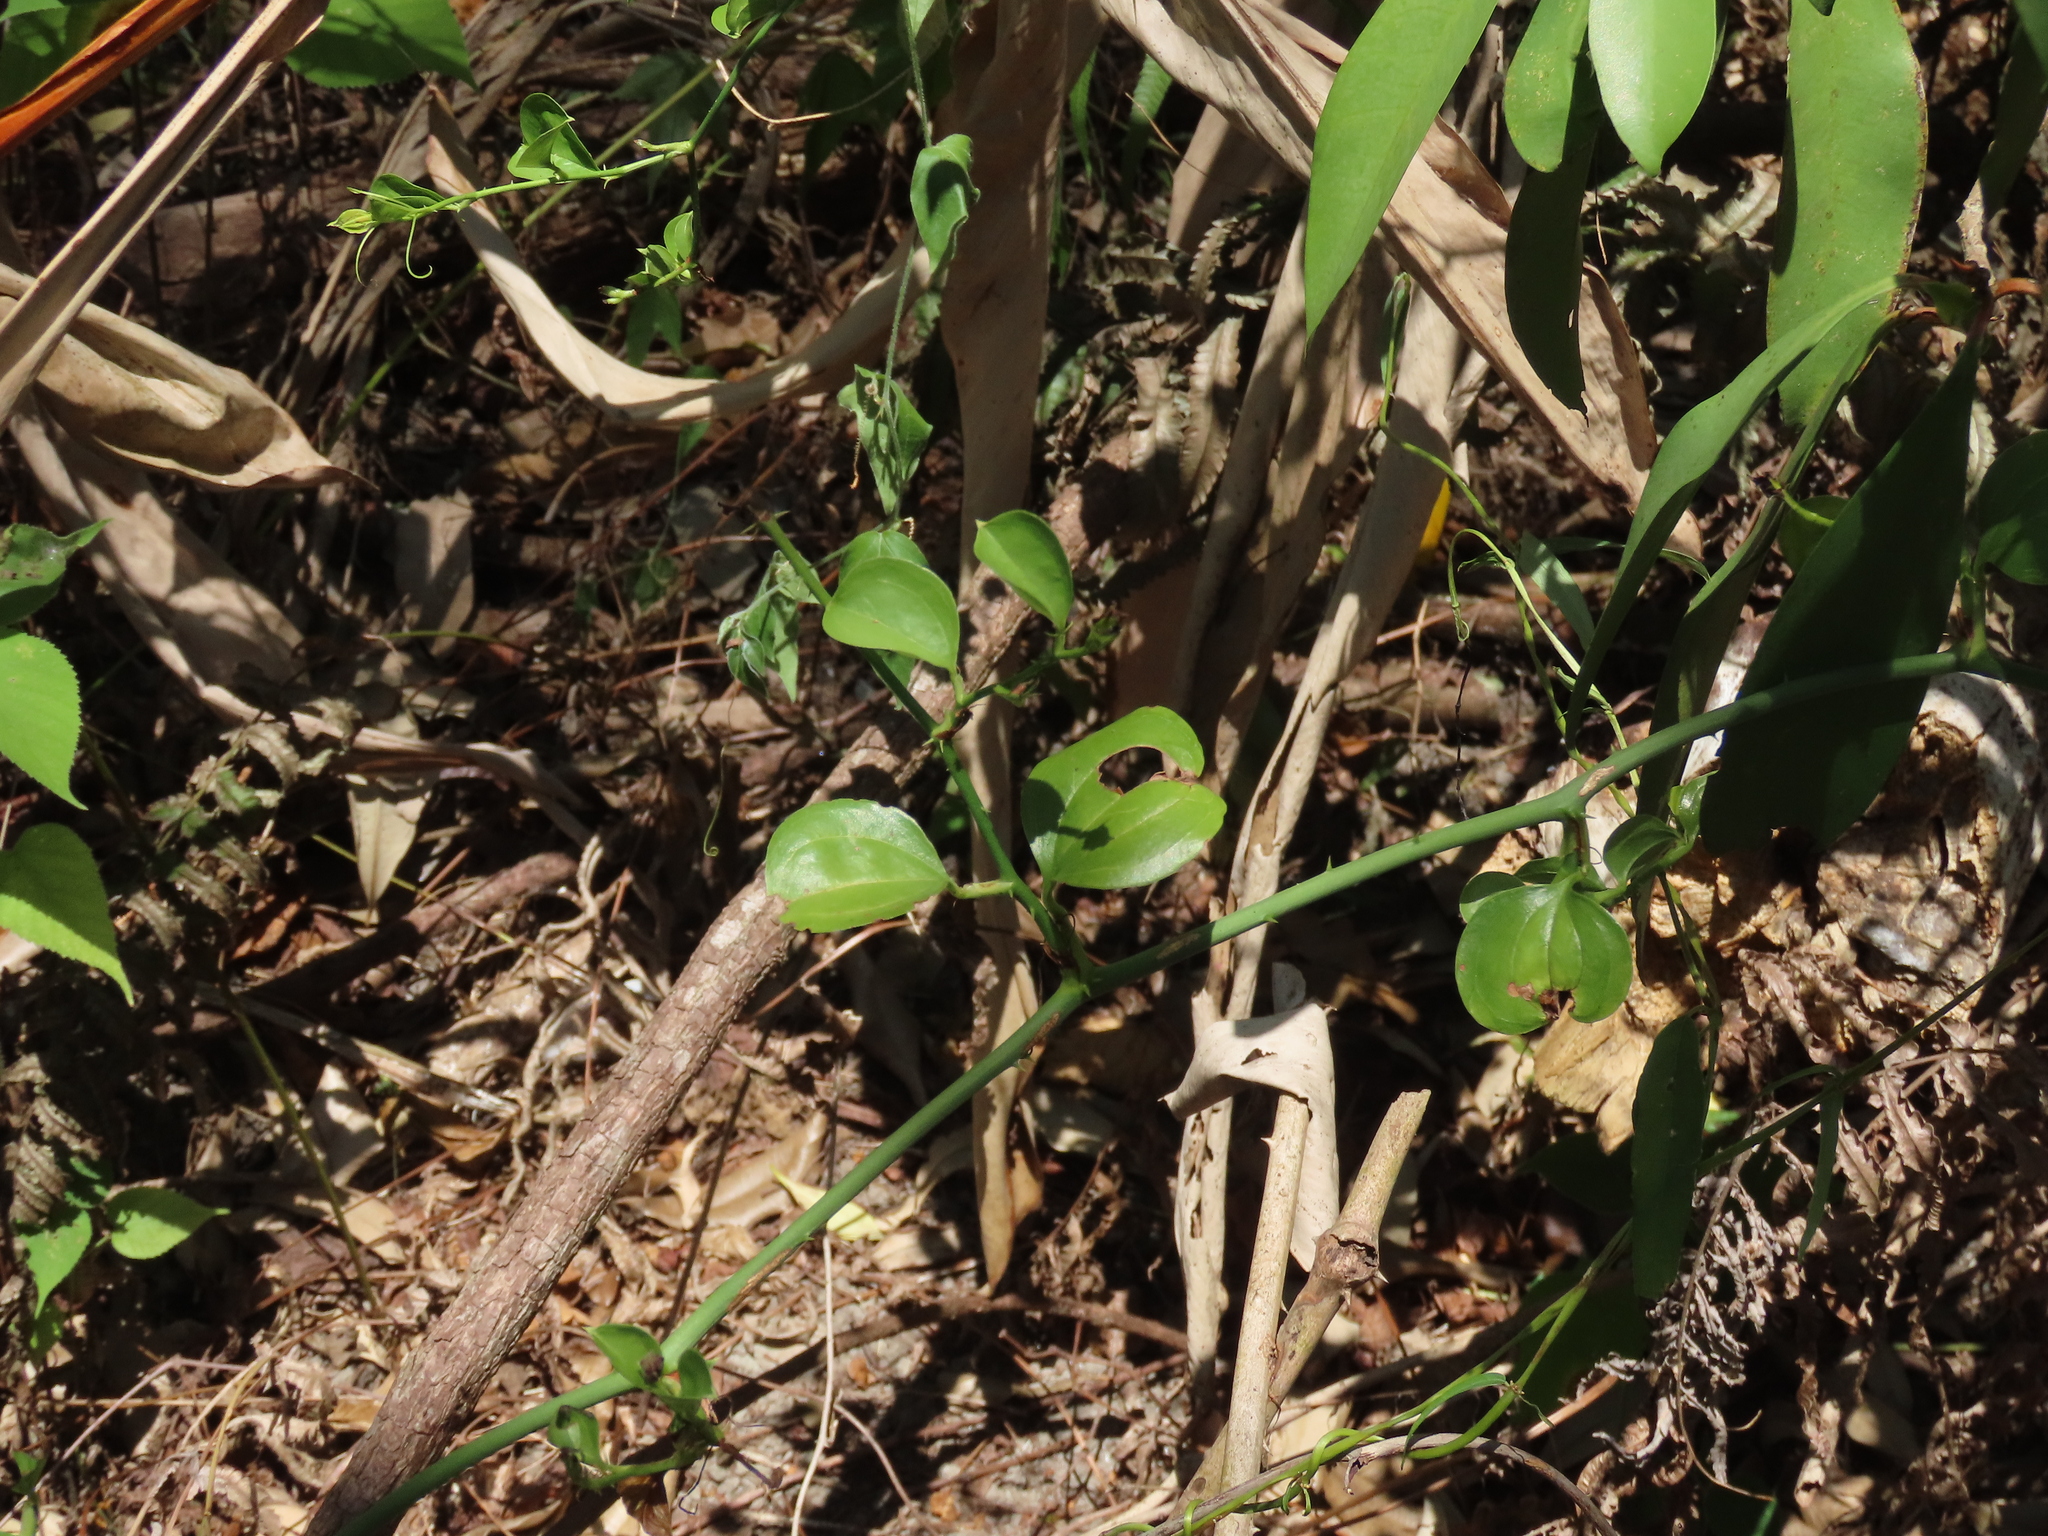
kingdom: Plantae
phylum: Tracheophyta
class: Liliopsida
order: Liliales
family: Smilacaceae
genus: Smilax
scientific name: Smilax china
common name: Chinaroot
